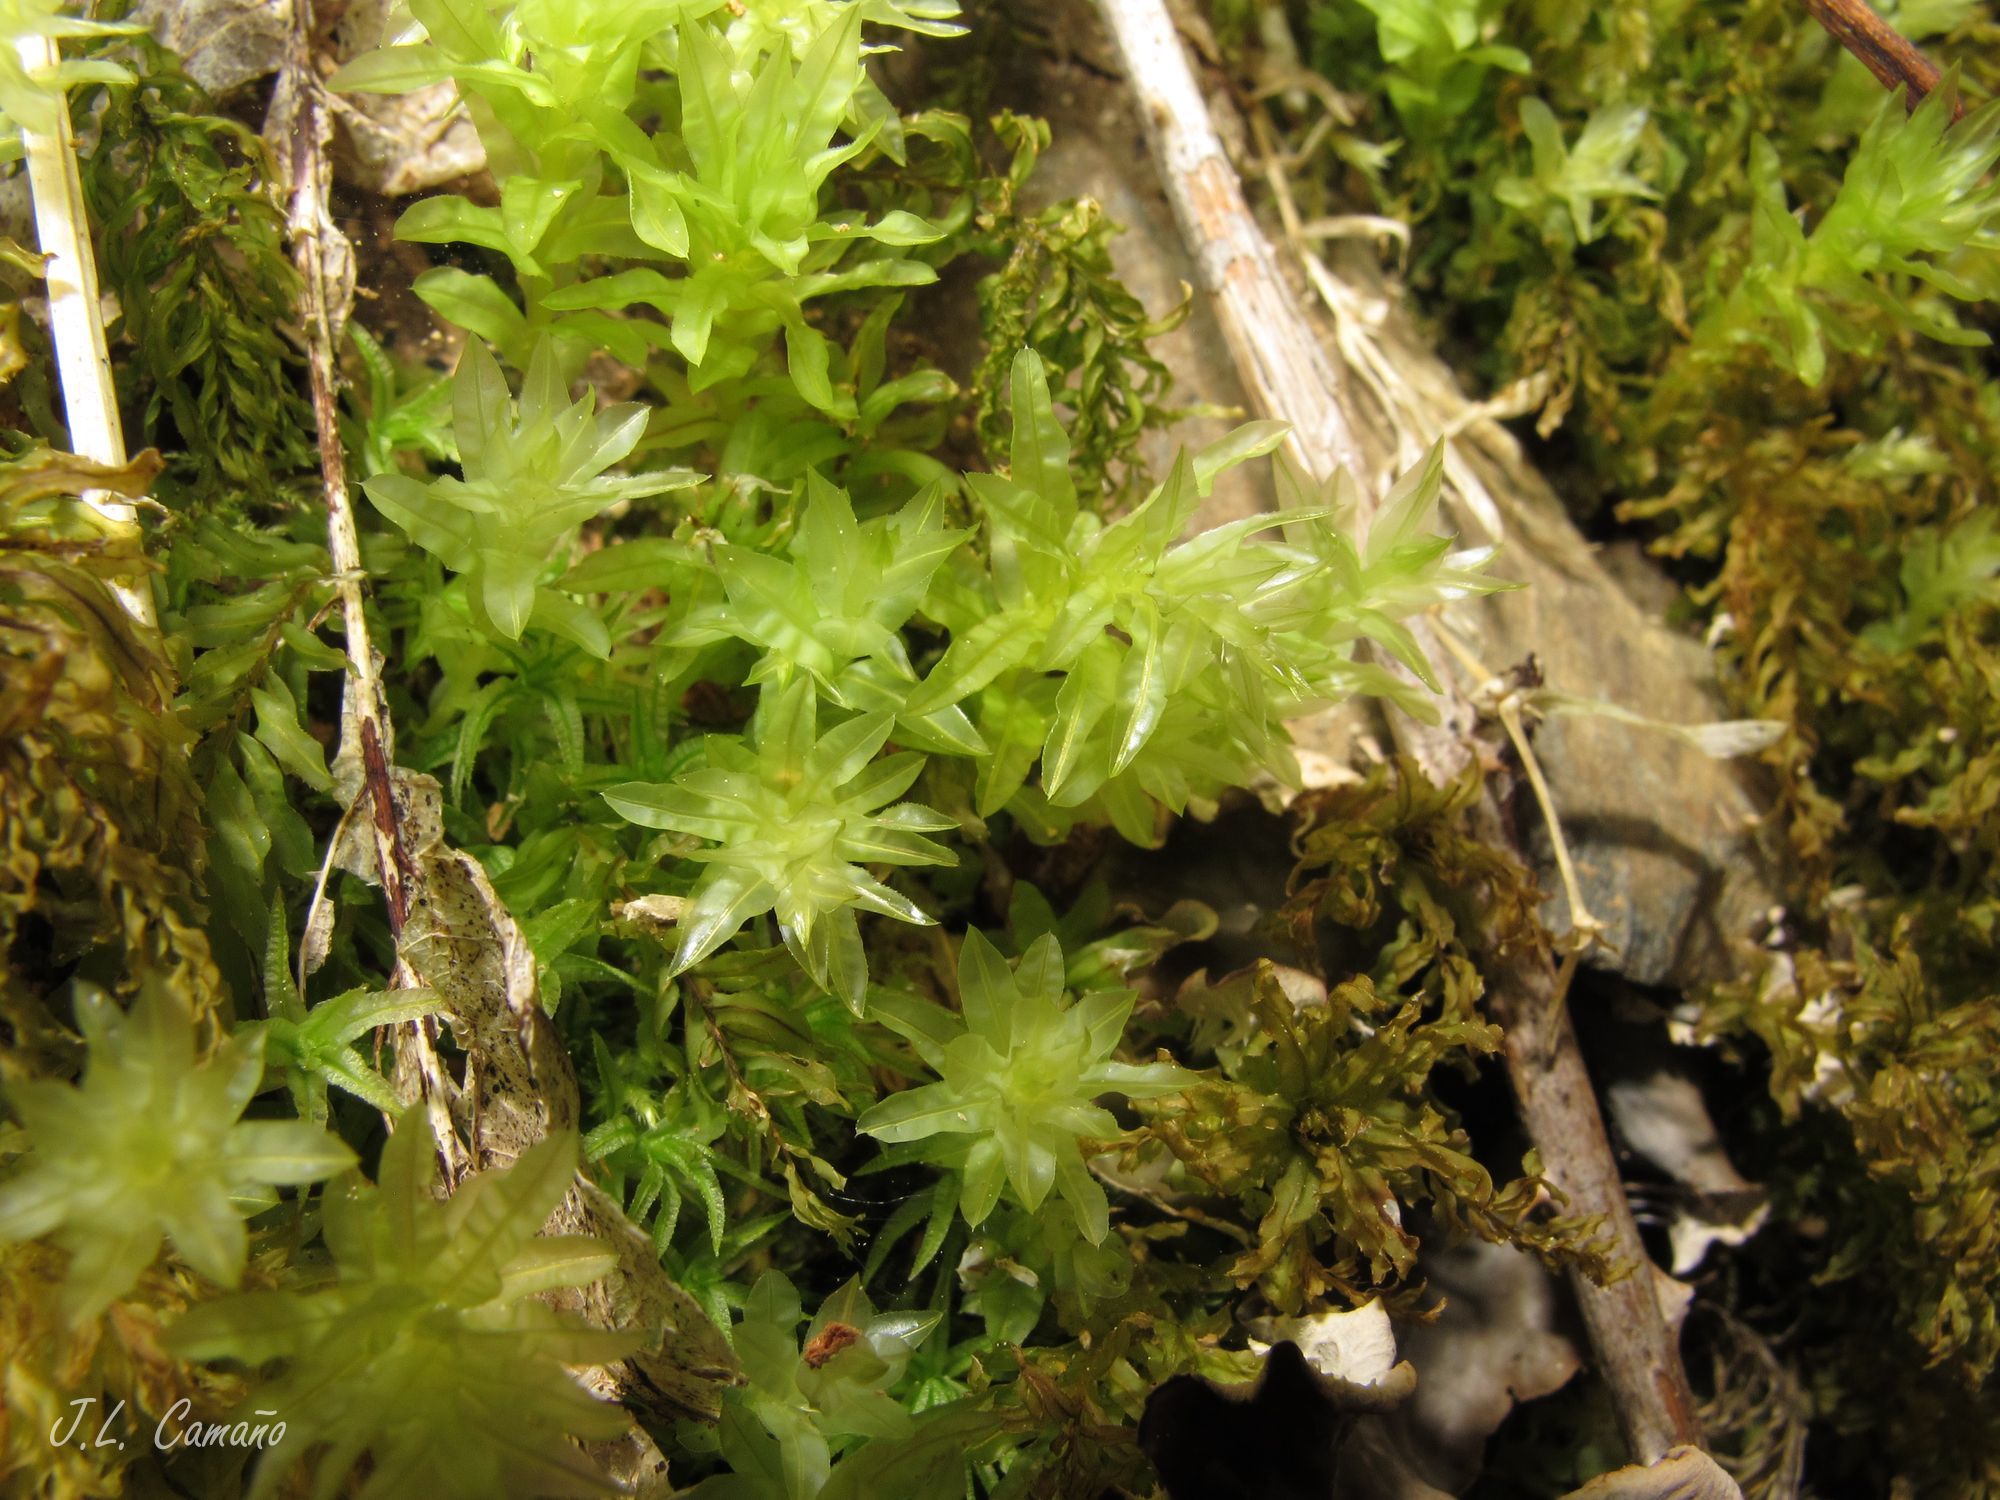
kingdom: Plantae
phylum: Bryophyta
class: Bryopsida
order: Bryales
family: Mniaceae
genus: Plagiomnium
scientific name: Plagiomnium undulatum
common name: Hart's-tongue thyme-moss
